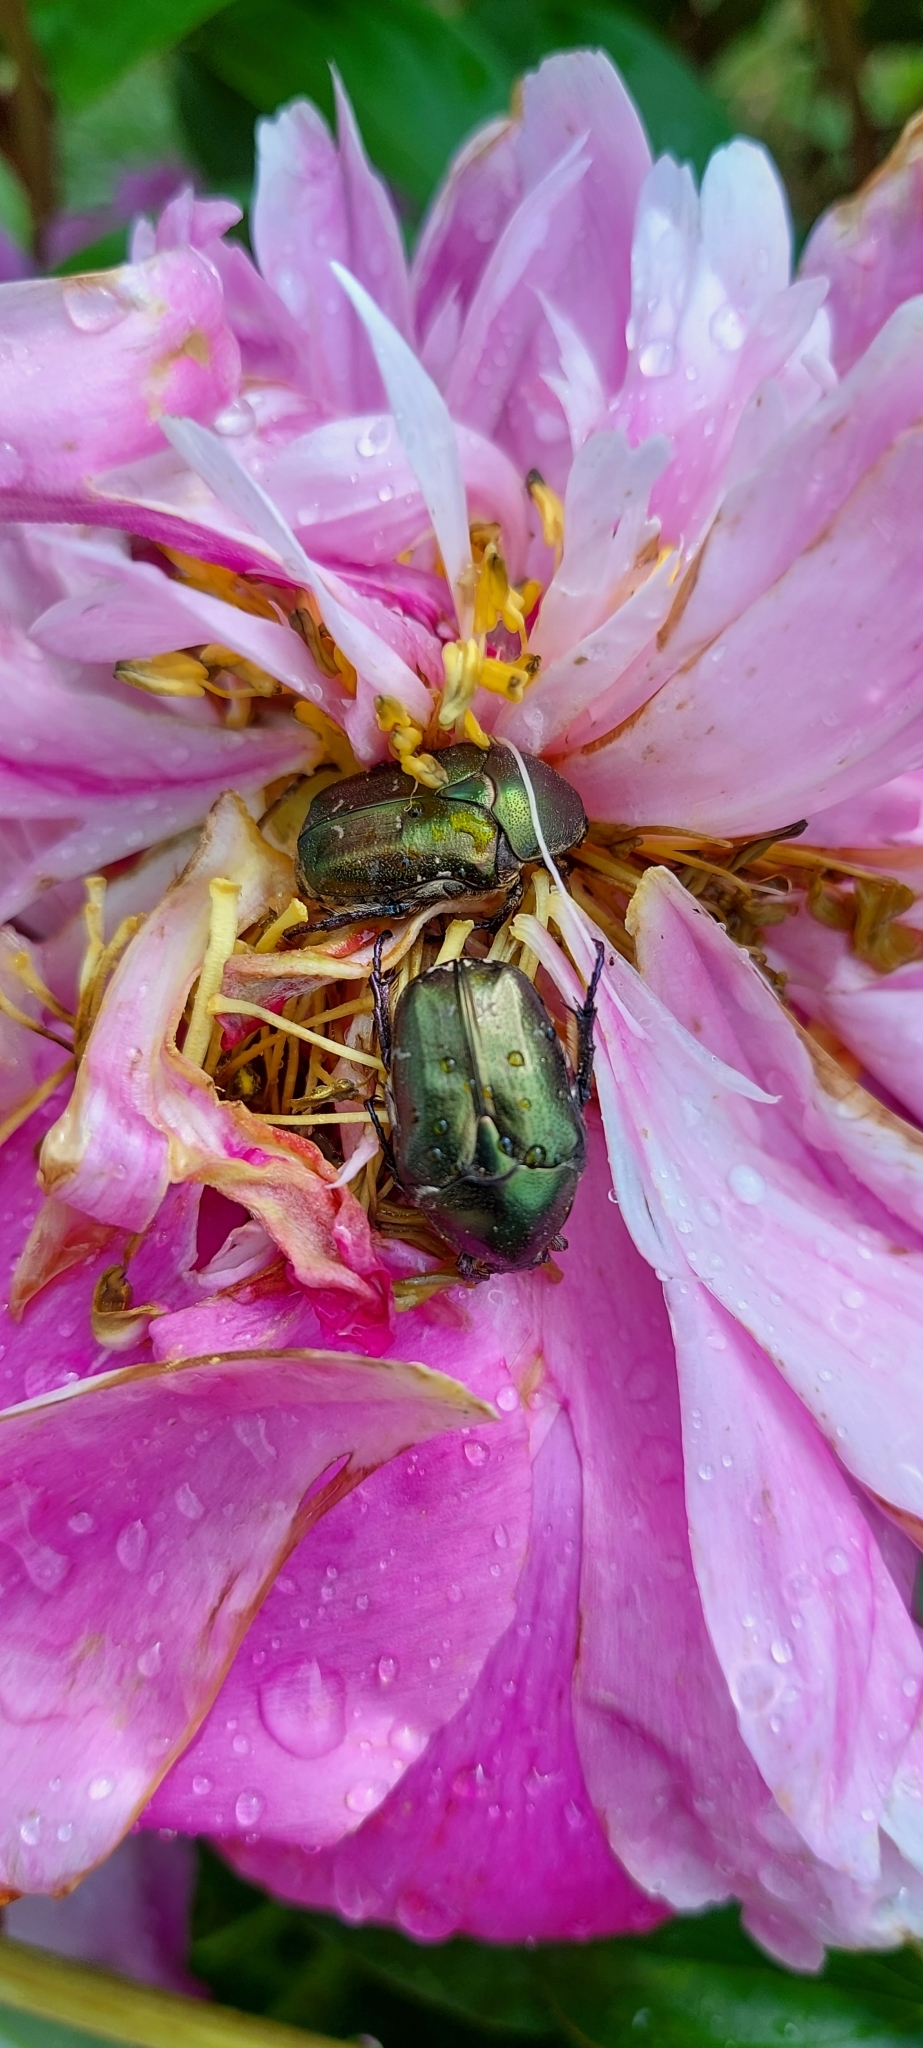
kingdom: Animalia
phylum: Arthropoda
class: Insecta
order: Coleoptera
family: Scarabaeidae
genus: Cetonia
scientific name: Cetonia aurata
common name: Rose chafer
